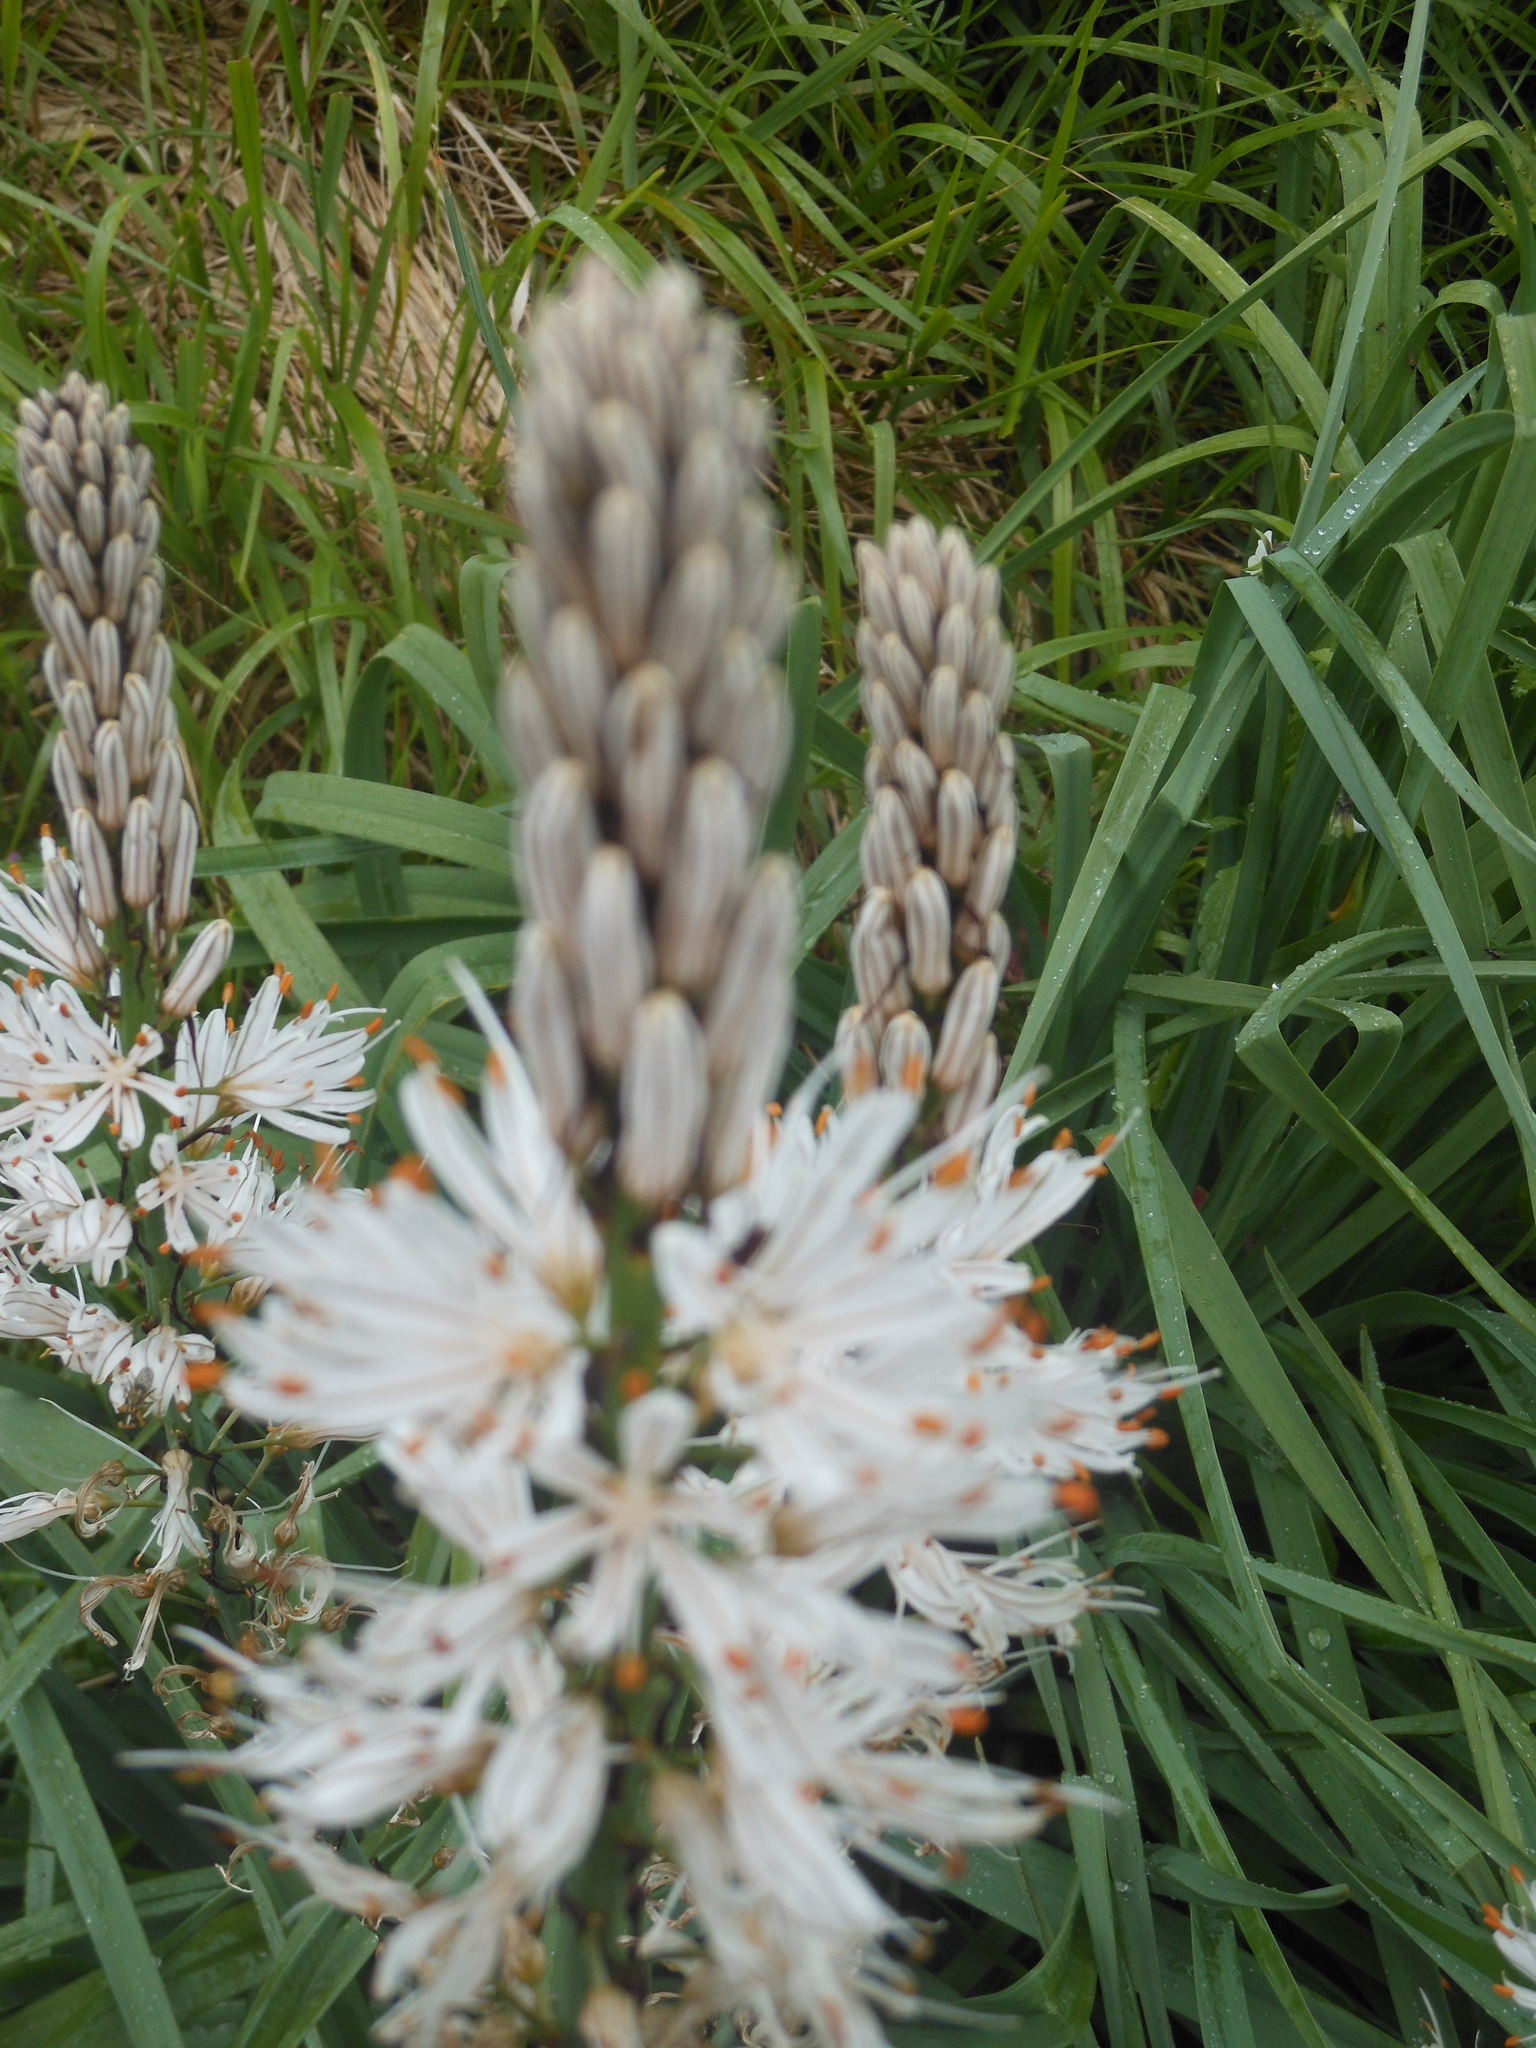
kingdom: Plantae
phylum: Tracheophyta
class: Liliopsida
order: Asparagales
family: Asphodelaceae
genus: Asphodelus
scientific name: Asphodelus albus
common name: White asphodel
